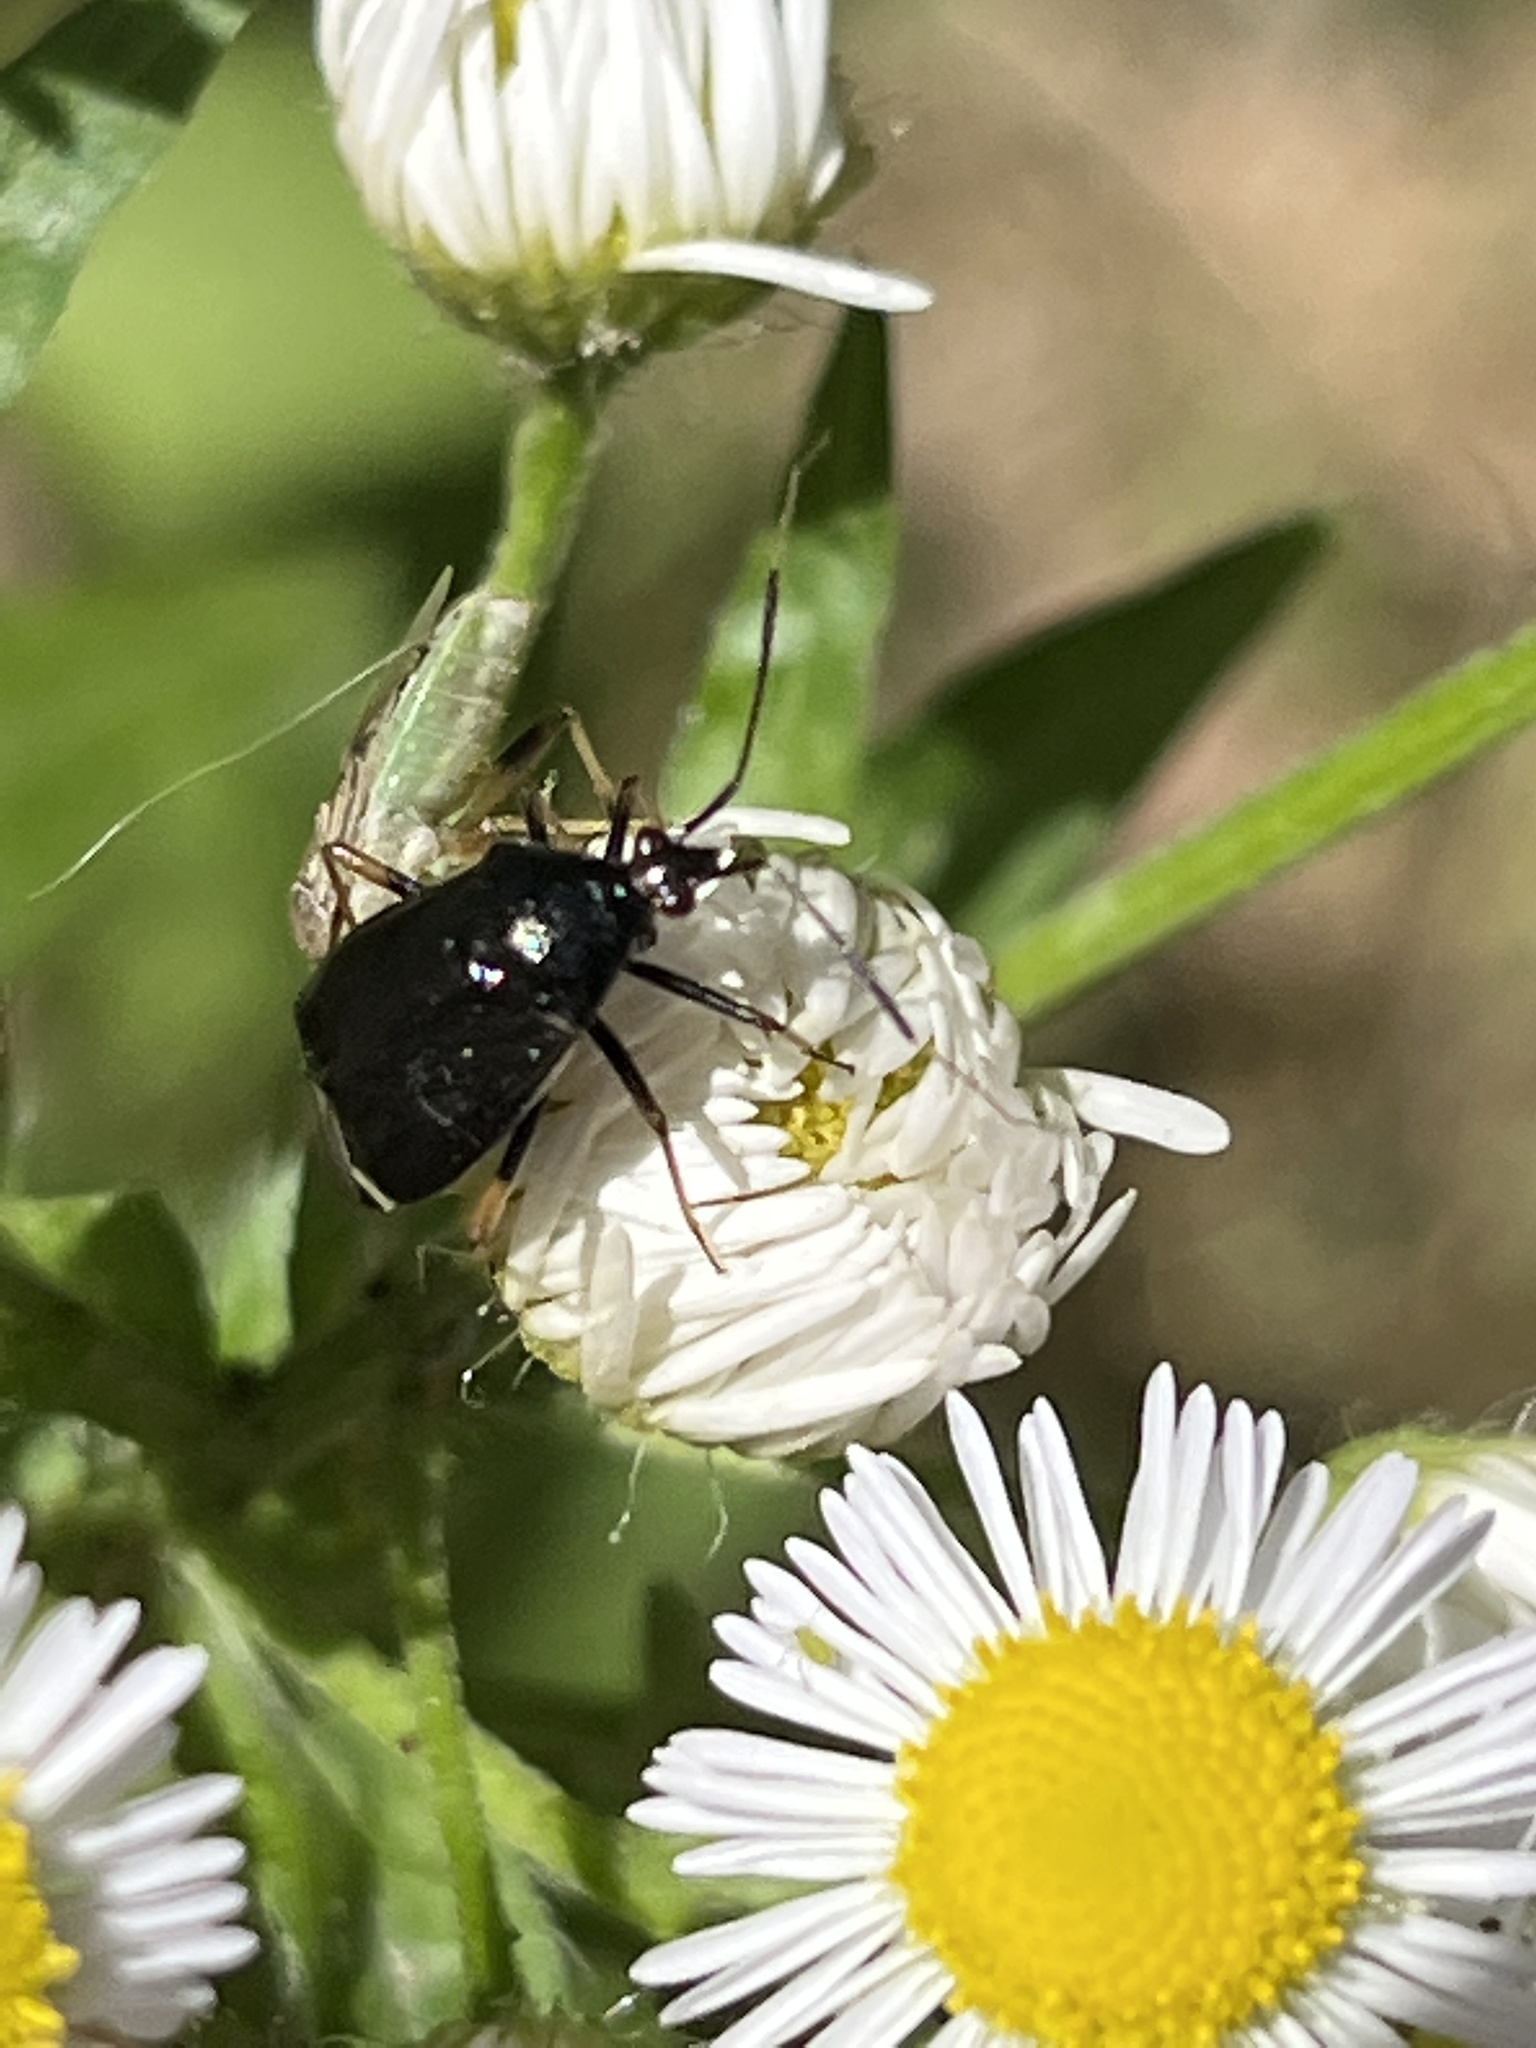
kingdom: Animalia
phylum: Arthropoda
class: Insecta
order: Hemiptera
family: Miridae
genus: Deraeocoris
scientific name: Deraeocoris ater
